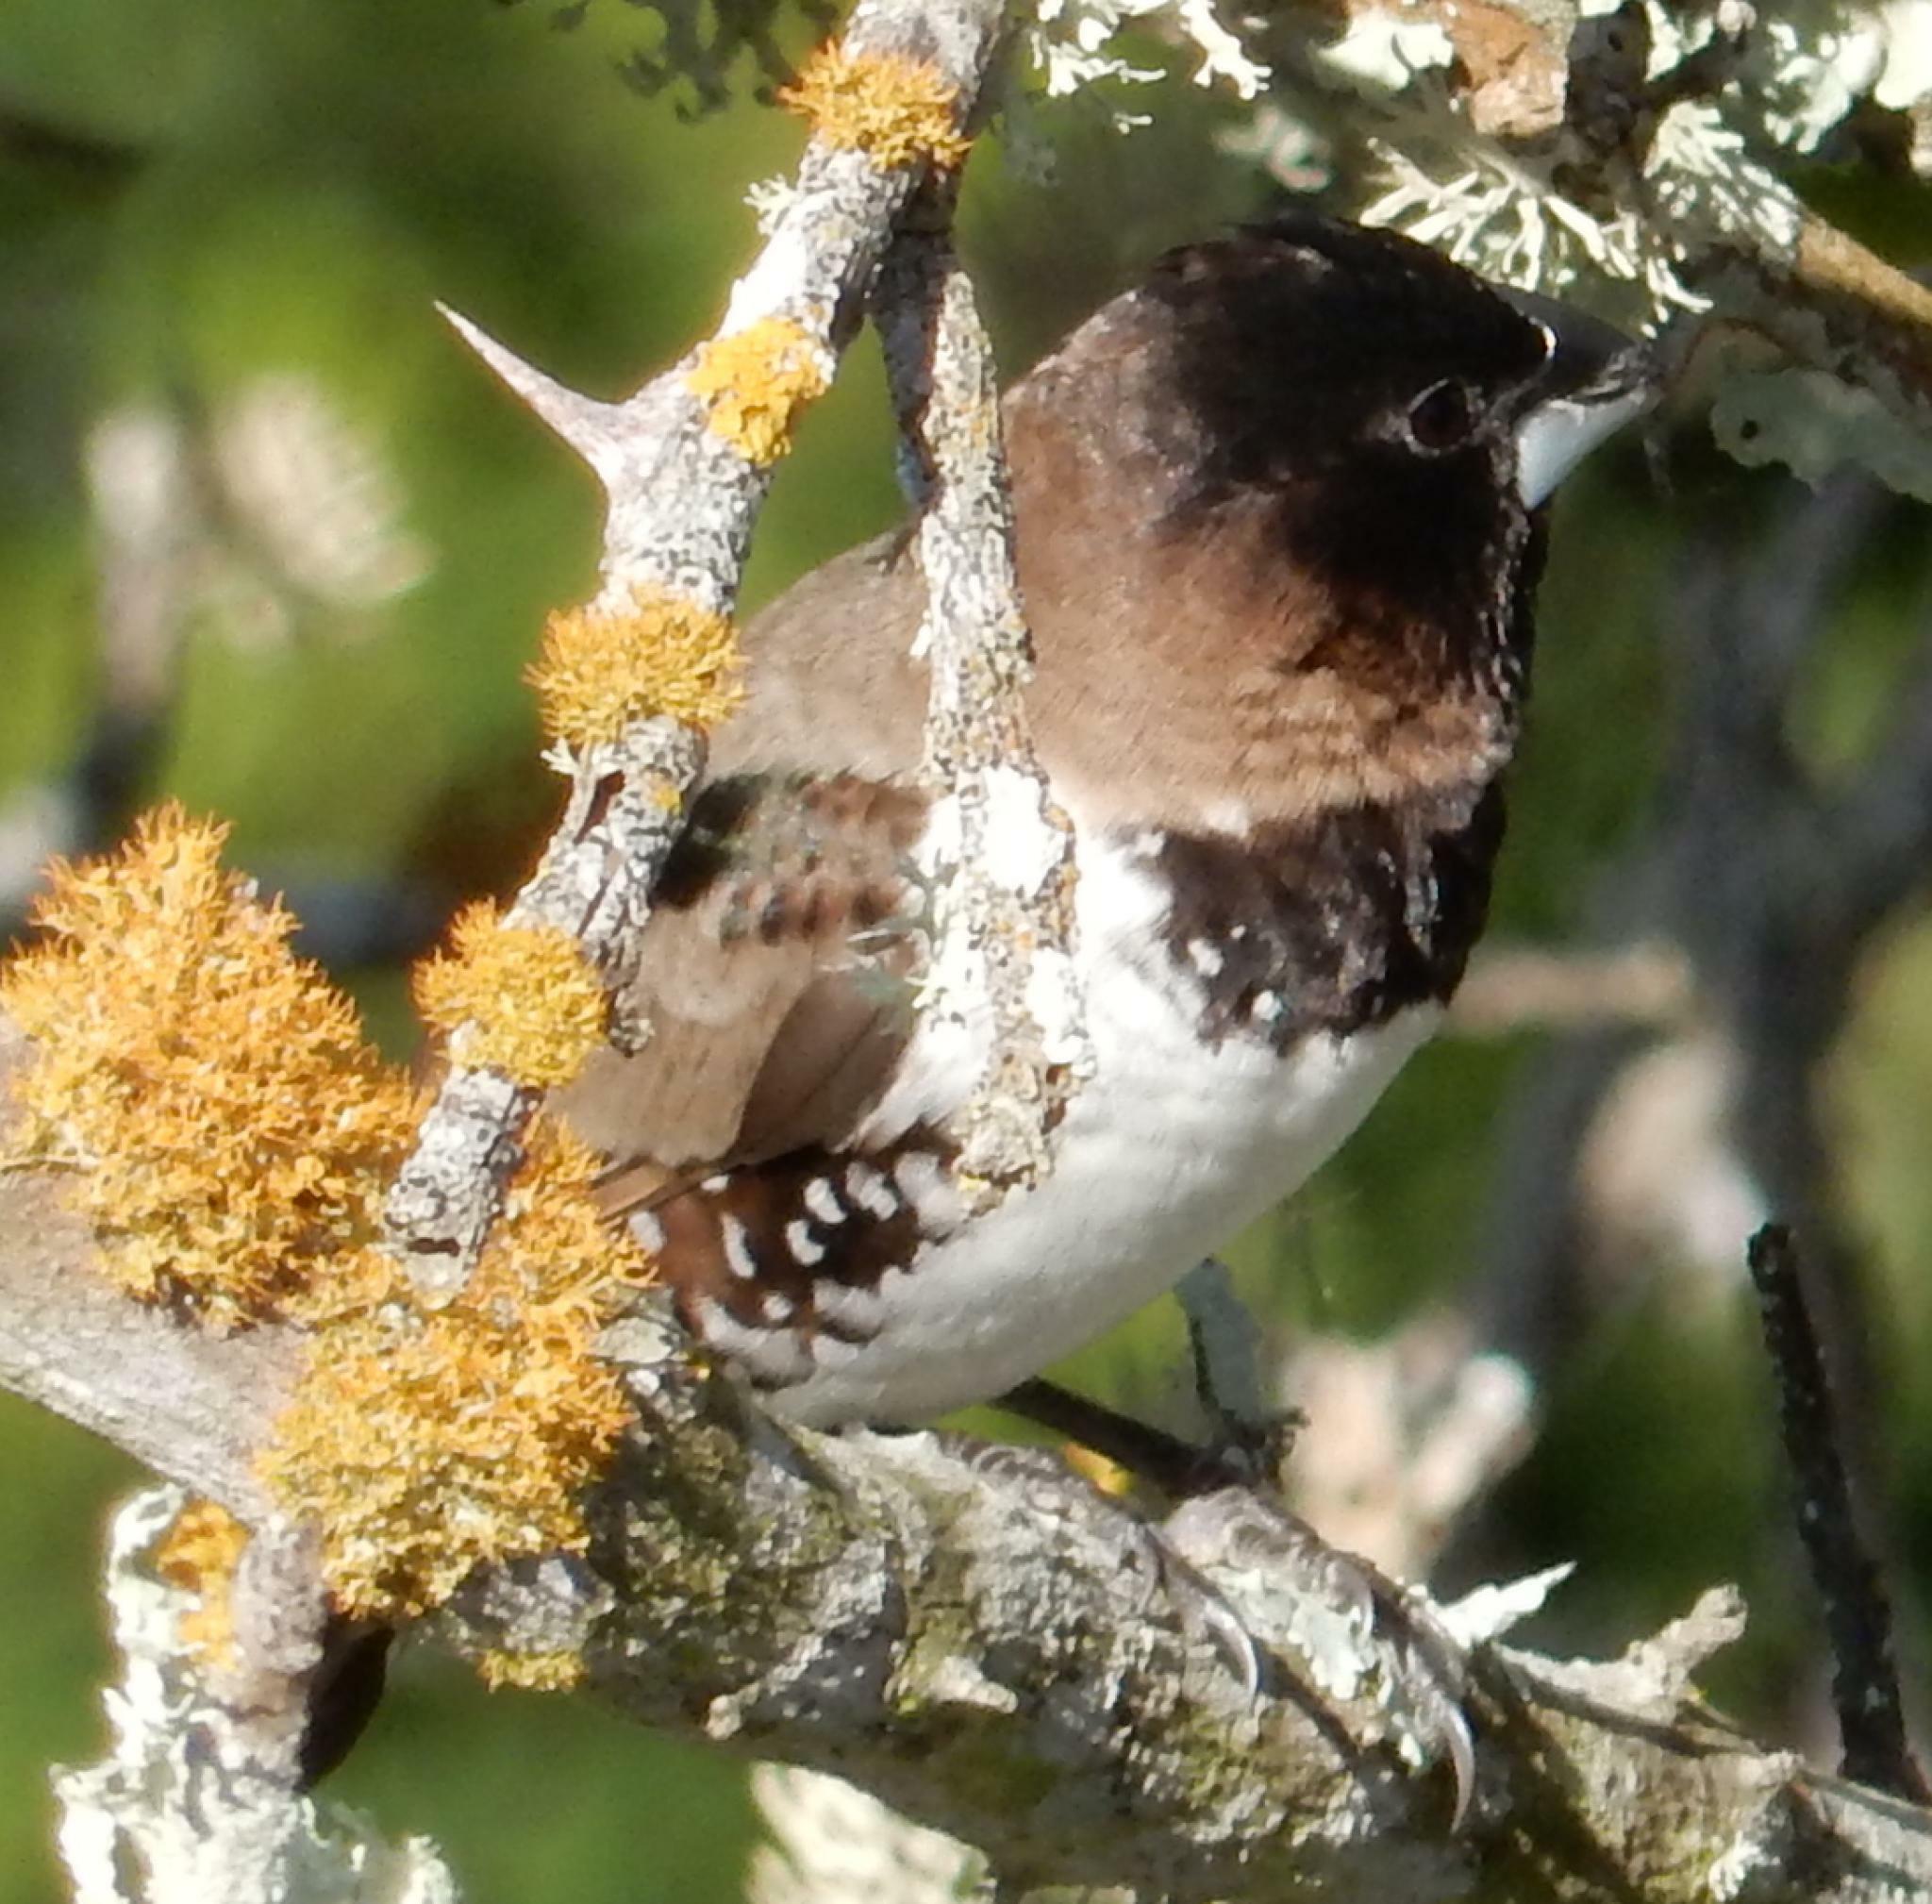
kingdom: Animalia
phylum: Chordata
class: Aves
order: Passeriformes
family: Estrildidae
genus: Lonchura
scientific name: Lonchura cucullata
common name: Bronze mannikin
